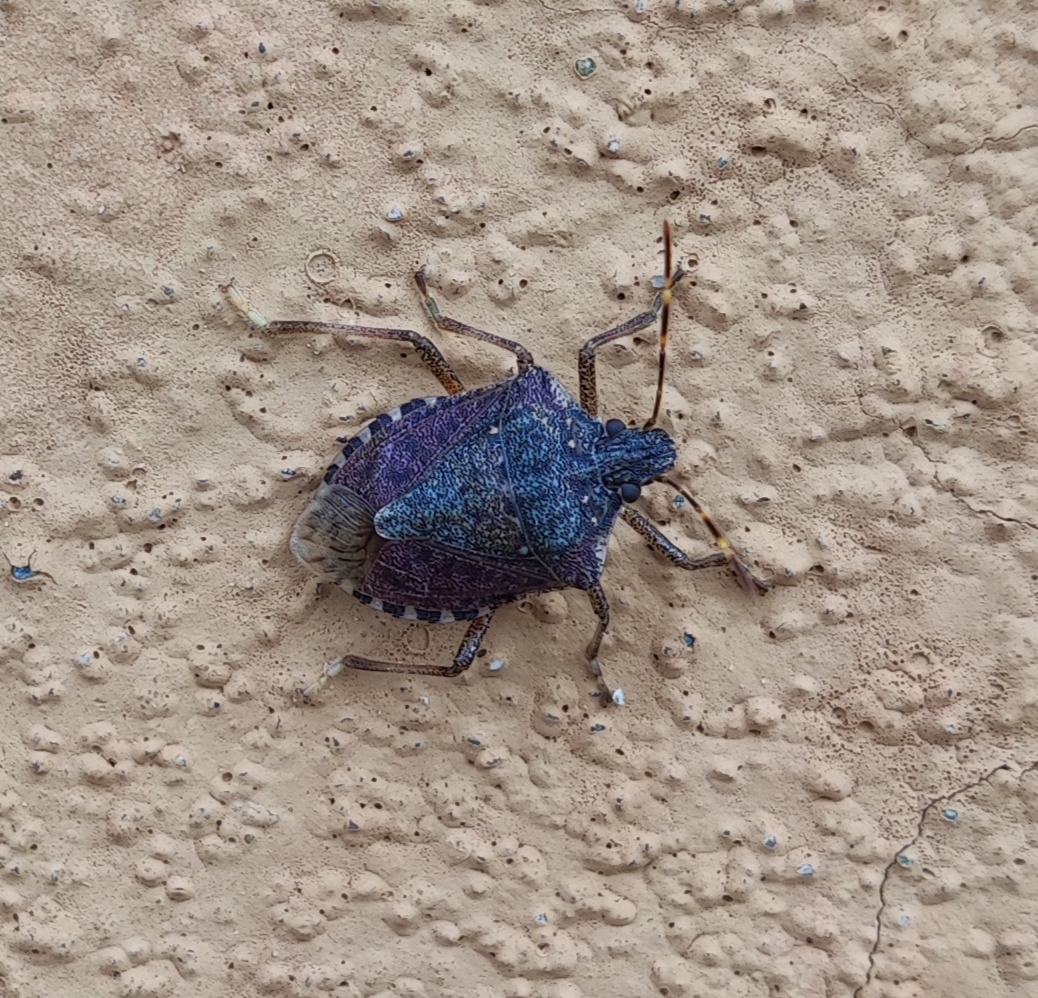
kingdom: Animalia
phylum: Arthropoda
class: Insecta
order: Hemiptera
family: Pentatomidae
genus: Halyomorpha
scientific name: Halyomorpha halys
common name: Brown marmorated stink bug
